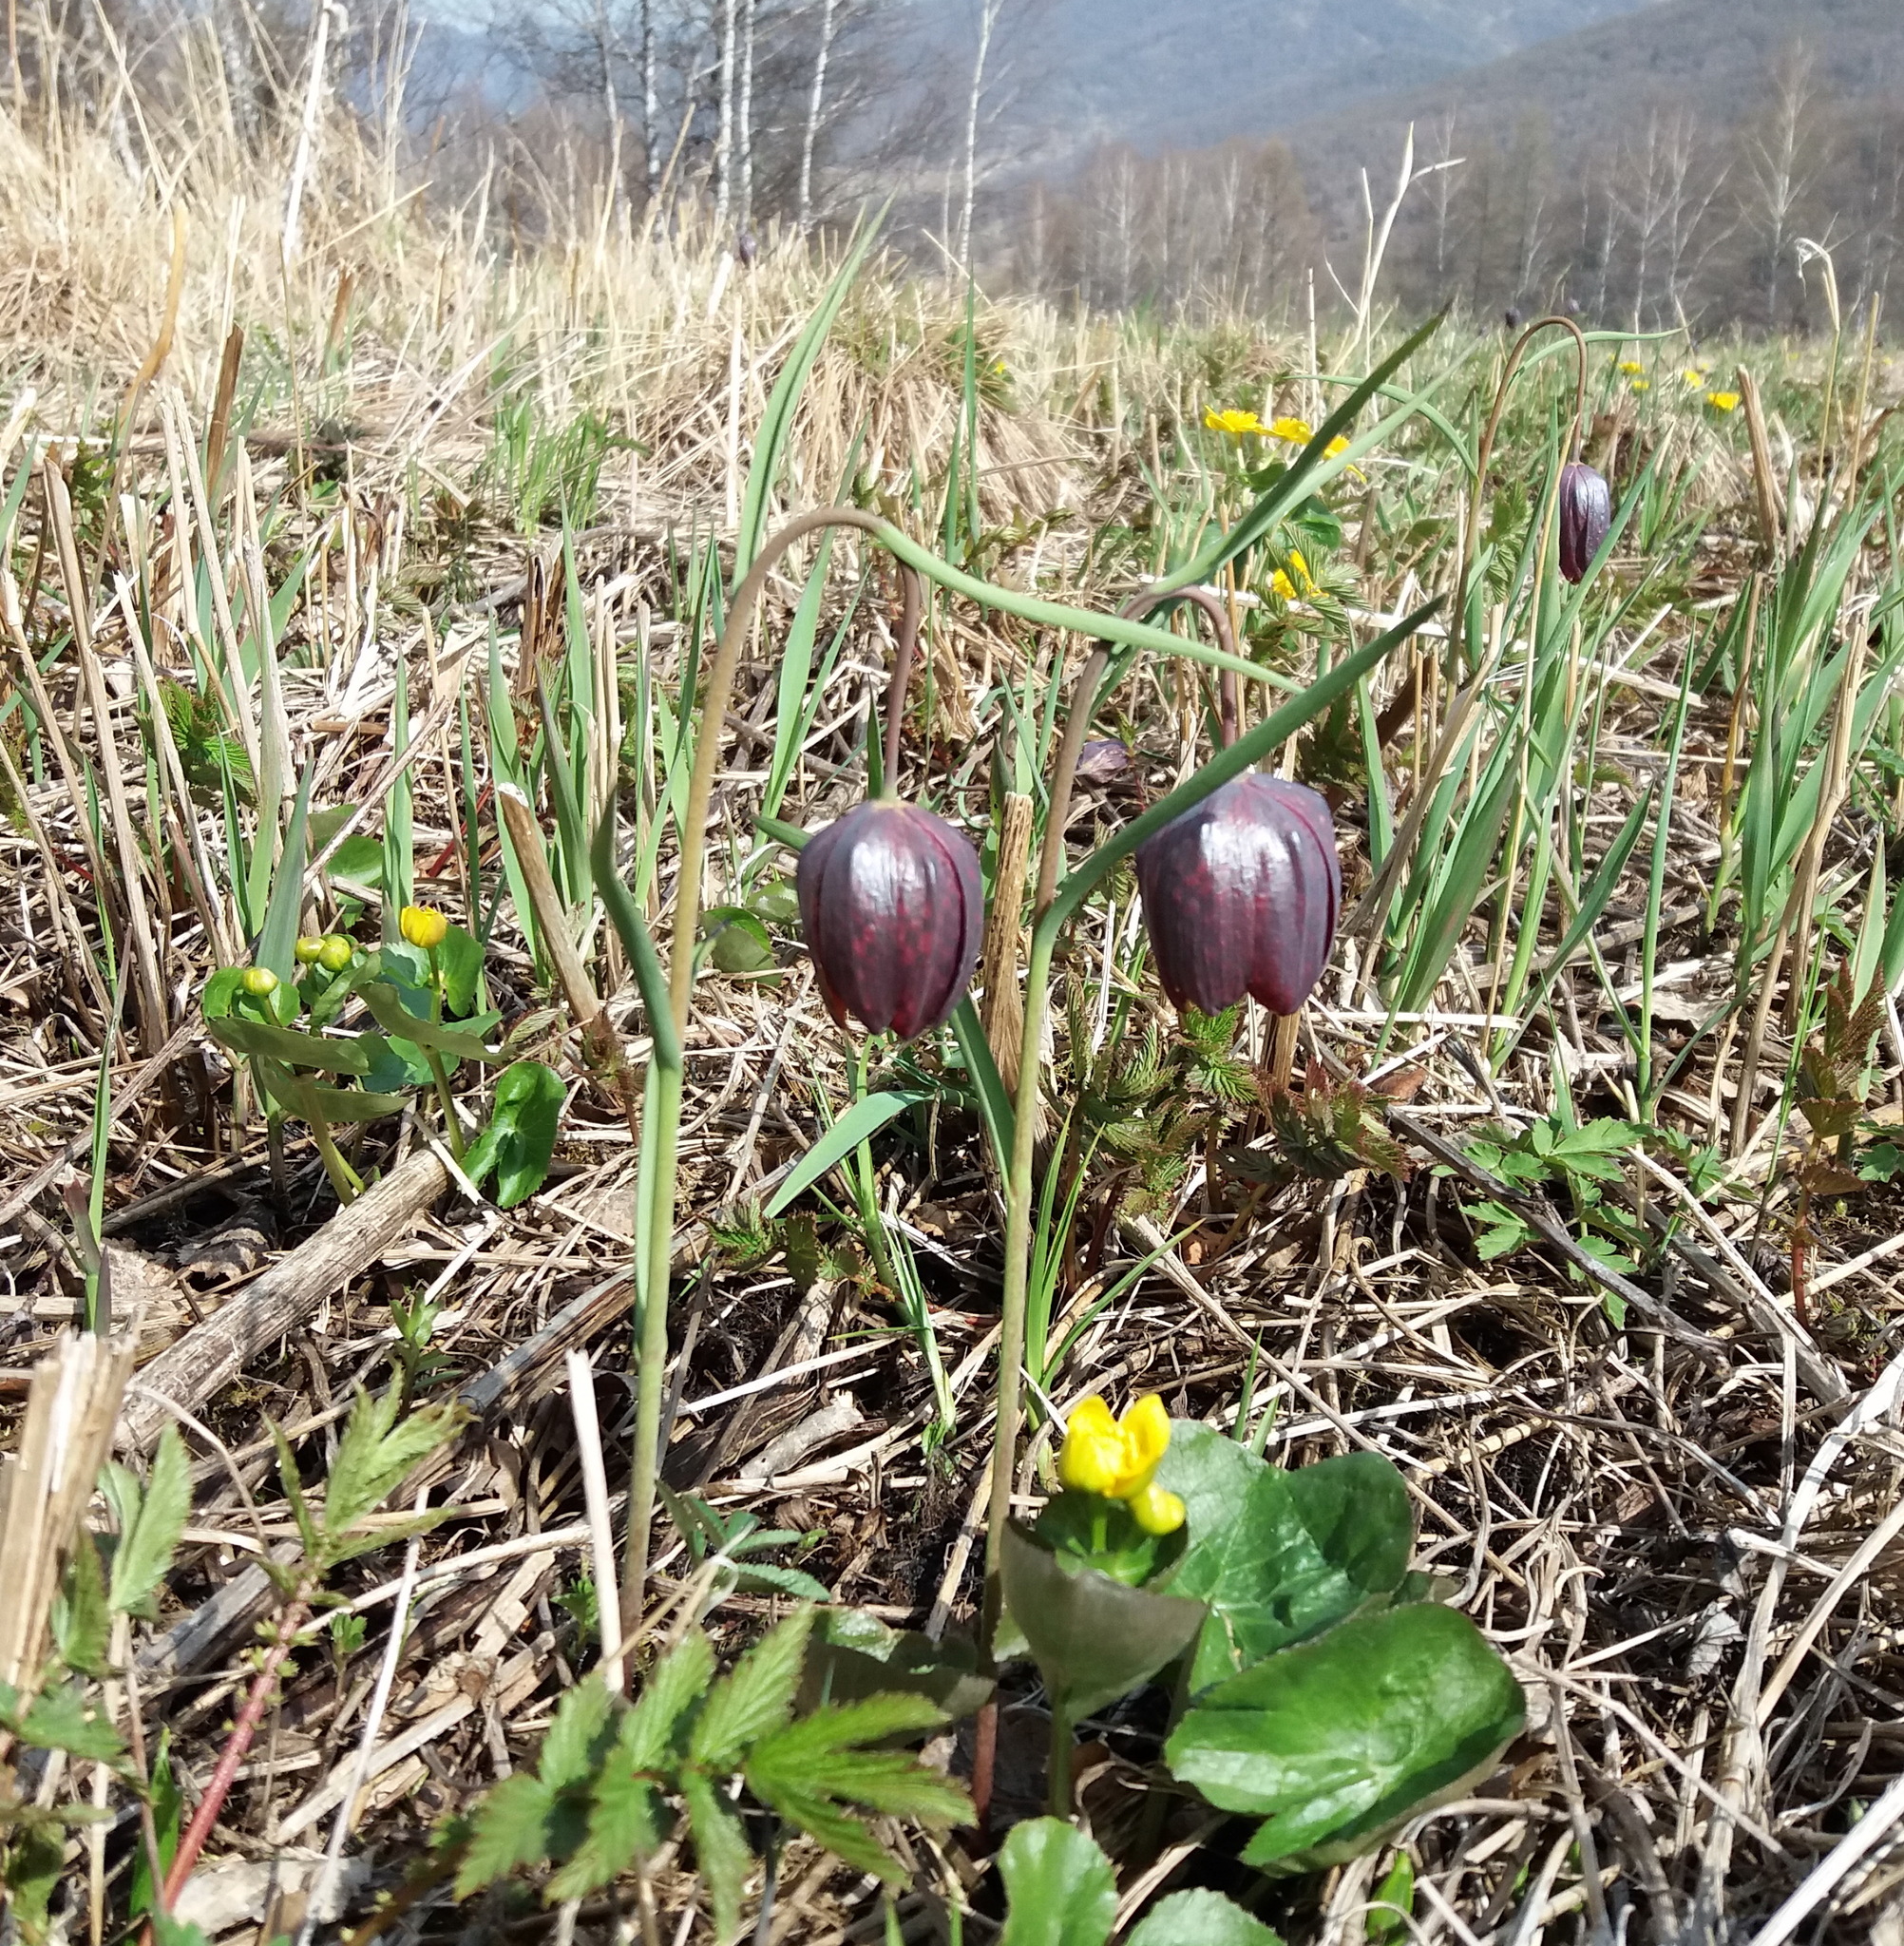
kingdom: Plantae
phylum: Tracheophyta
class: Liliopsida
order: Liliales
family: Liliaceae
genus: Fritillaria
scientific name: Fritillaria meleagris
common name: Fritillary
